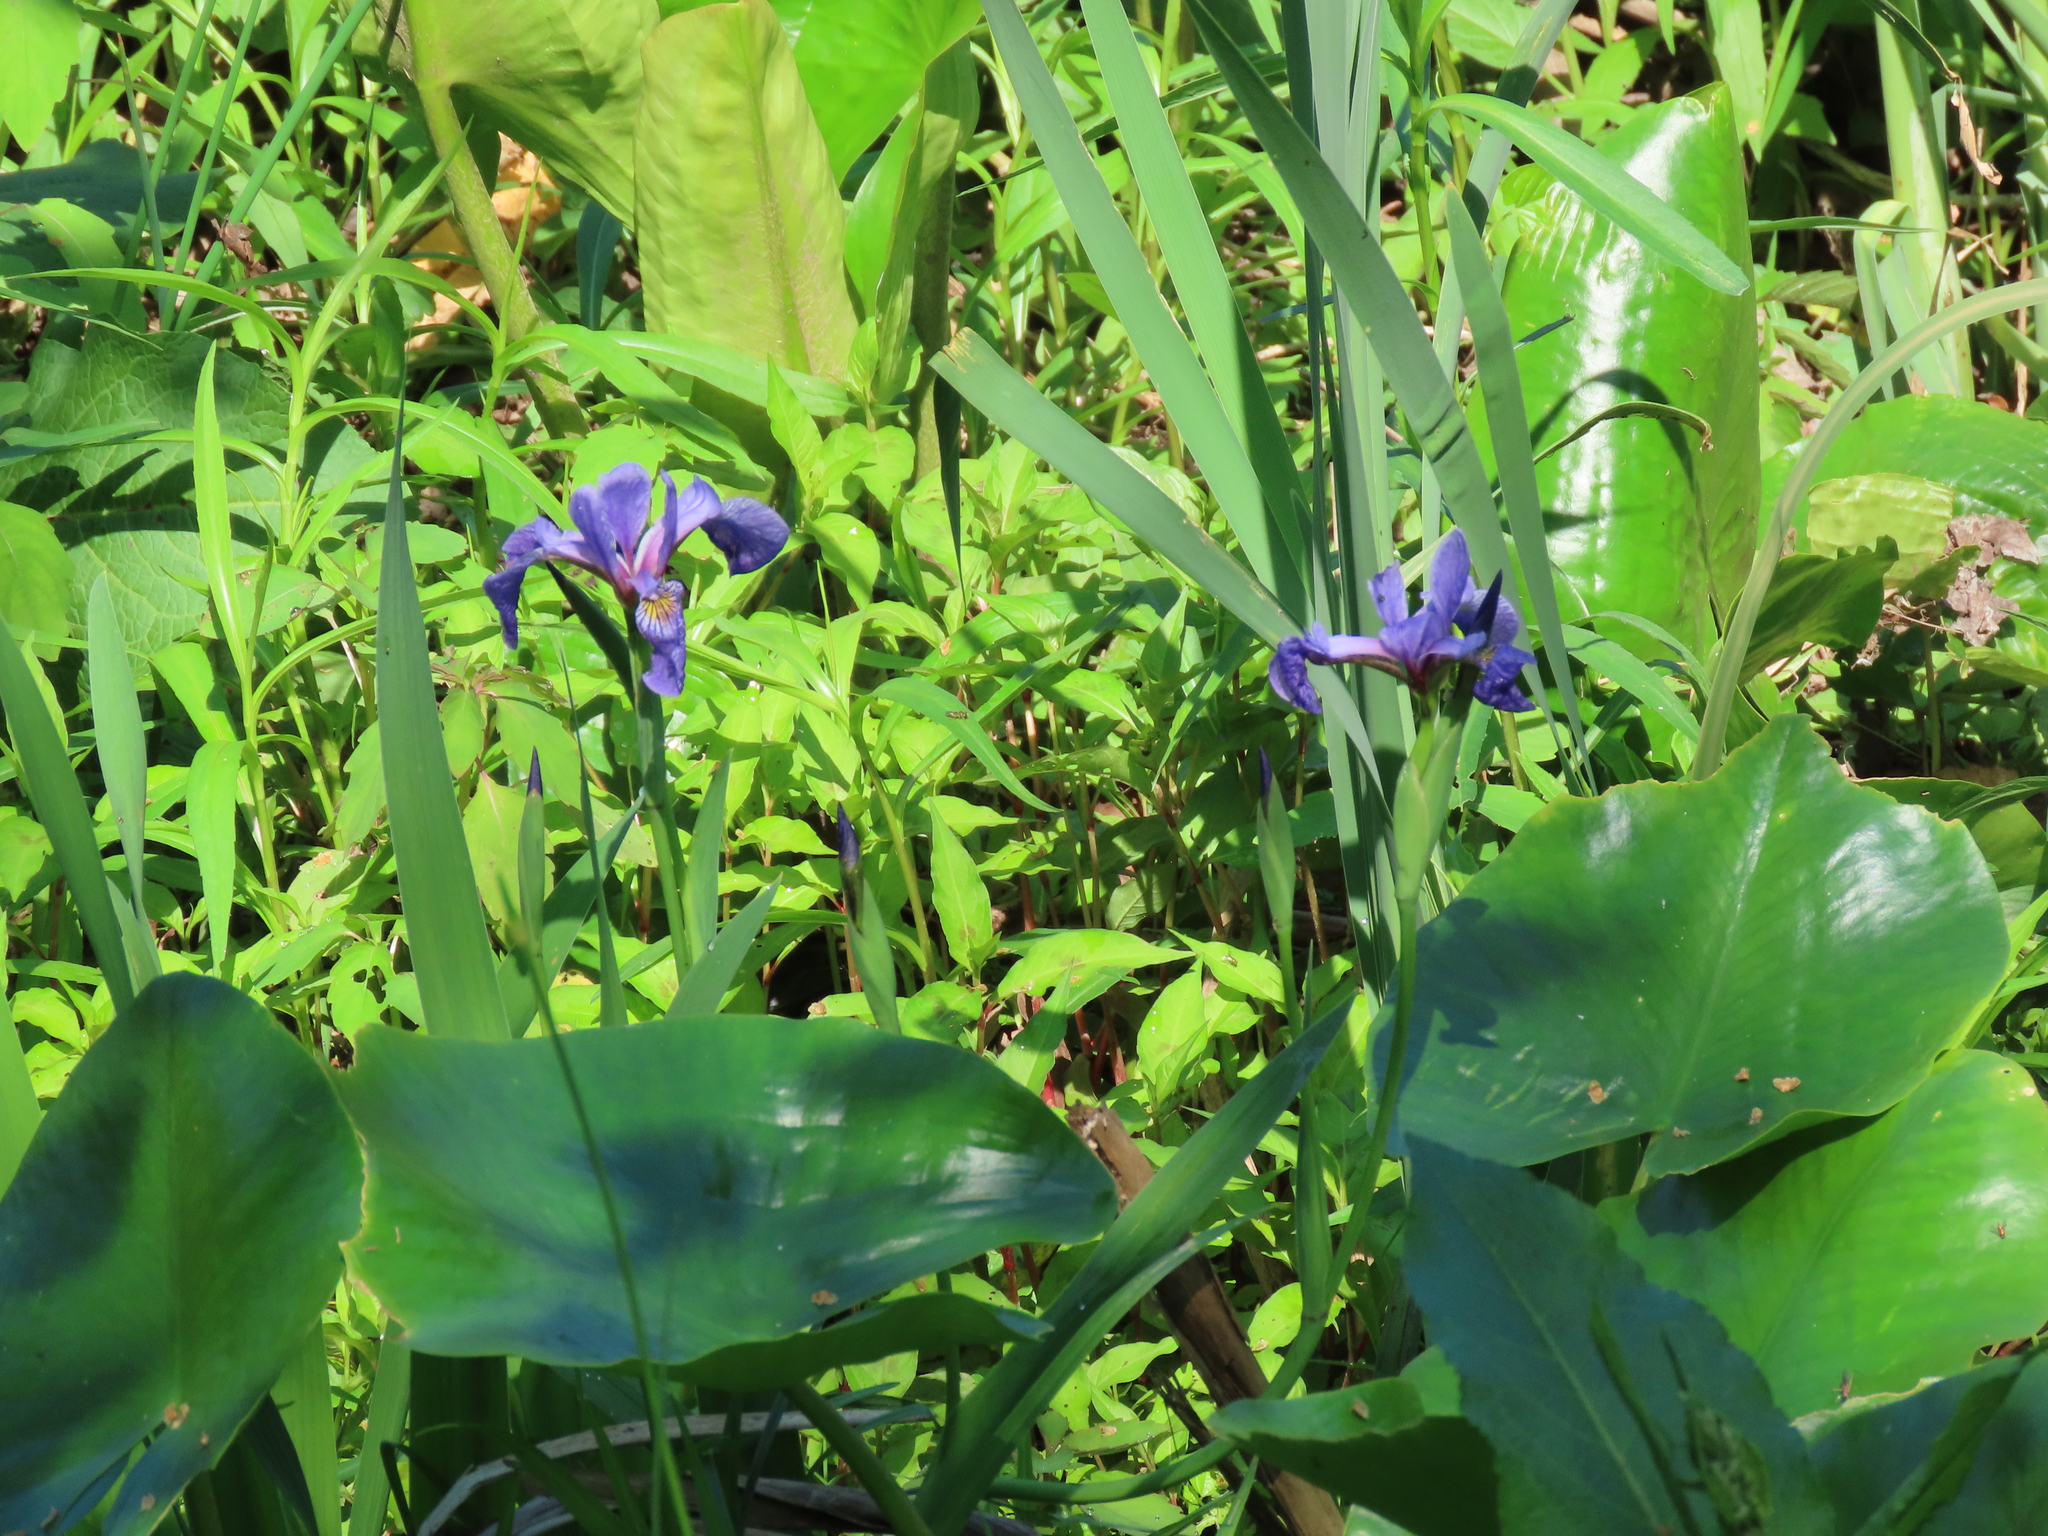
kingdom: Plantae
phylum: Tracheophyta
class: Liliopsida
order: Asparagales
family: Iridaceae
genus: Iris
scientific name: Iris versicolor
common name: Purple iris
